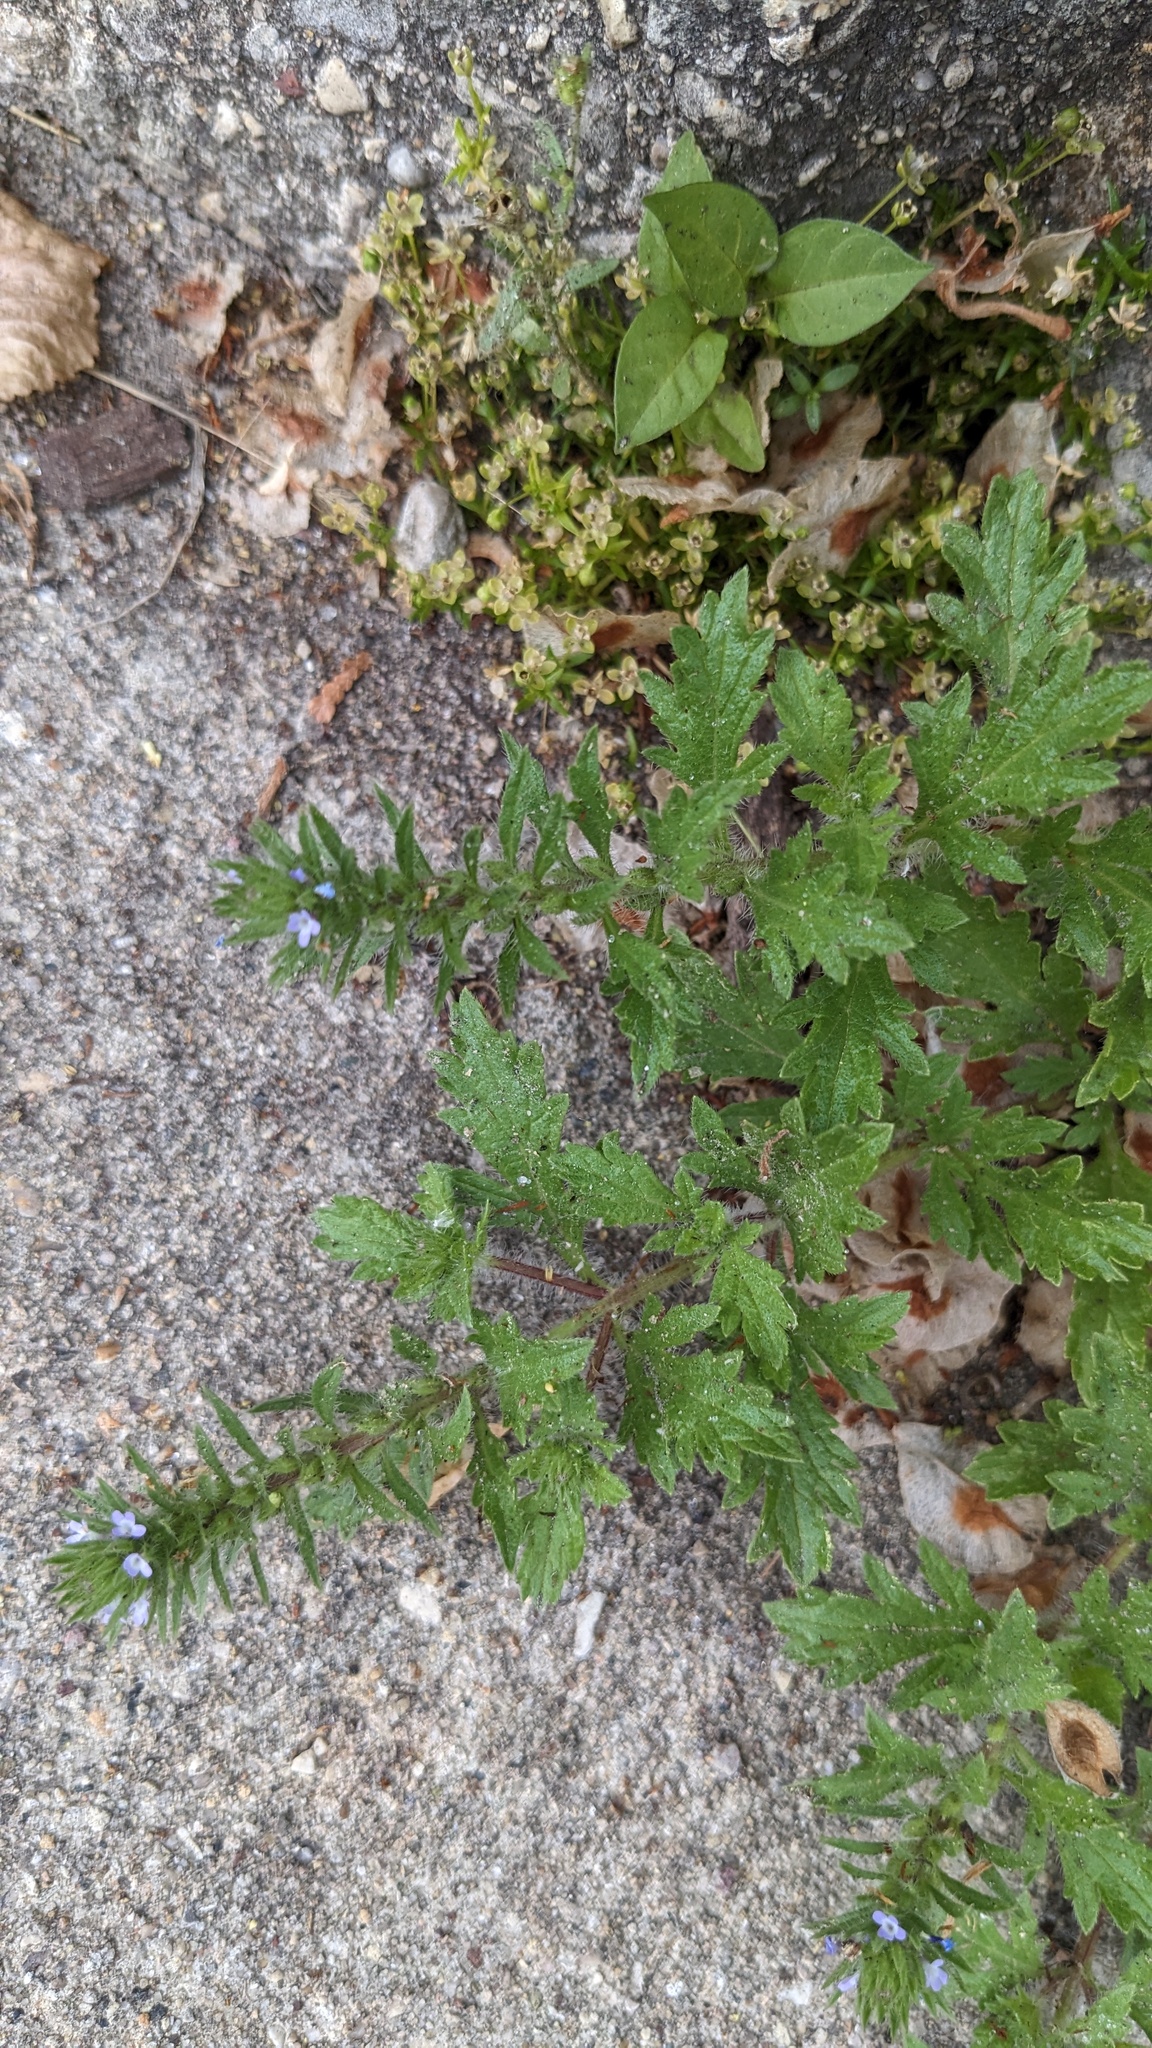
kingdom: Plantae
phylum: Tracheophyta
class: Magnoliopsida
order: Lamiales
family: Verbenaceae
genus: Verbena
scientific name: Verbena bracteata
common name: Bracted vervain
